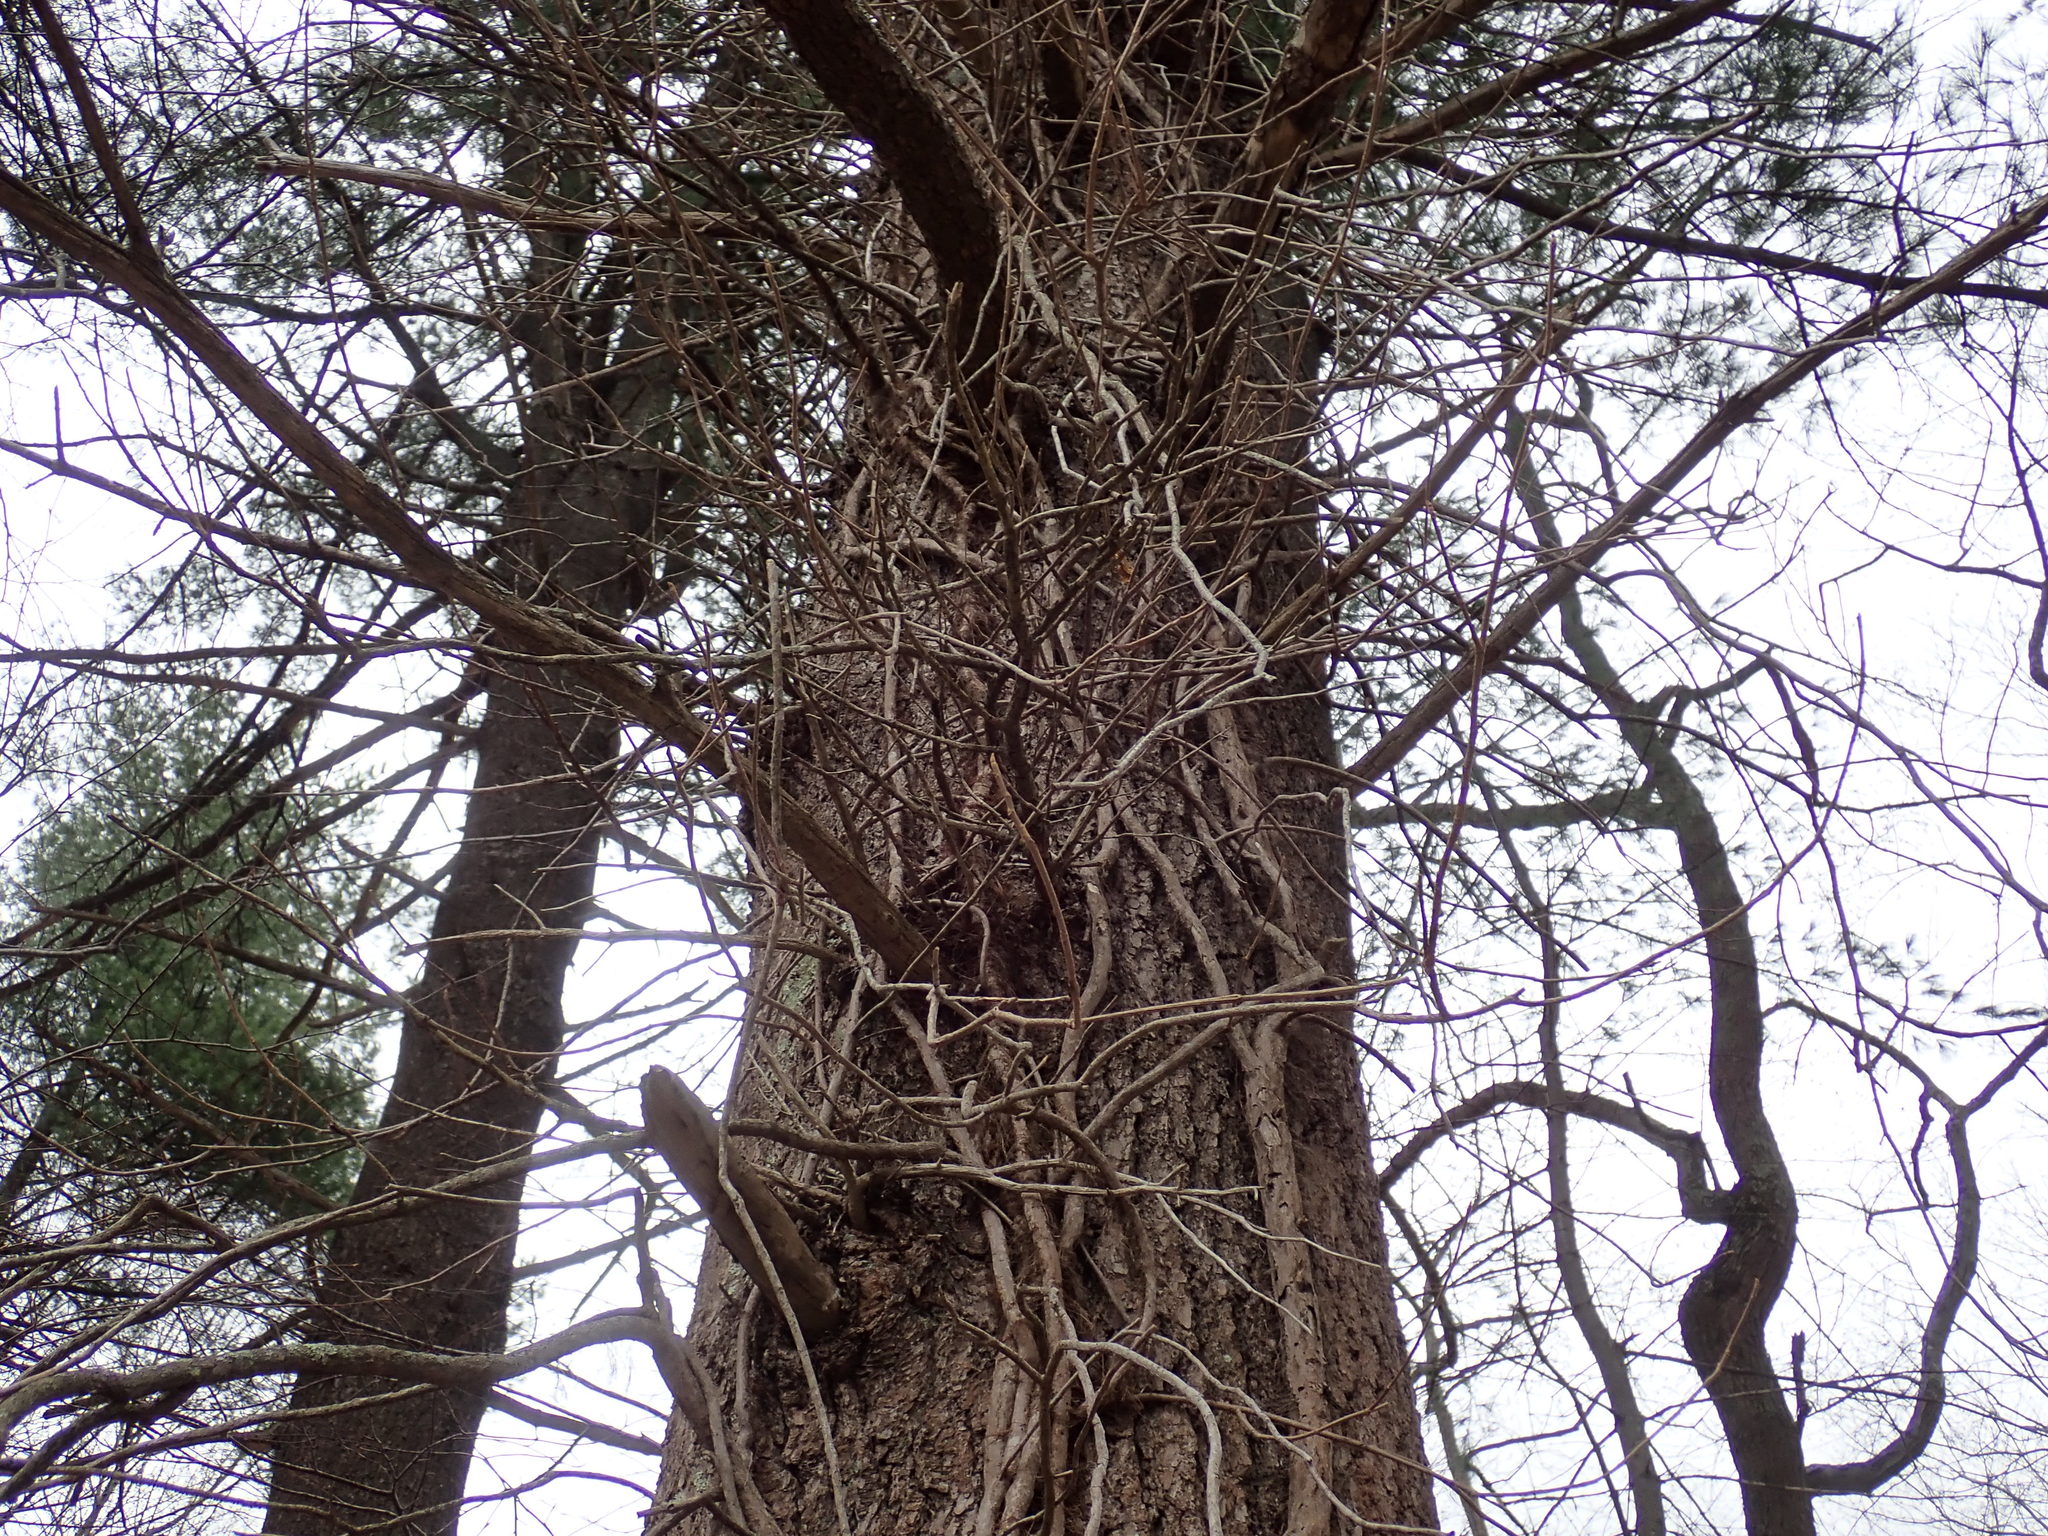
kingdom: Plantae
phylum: Tracheophyta
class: Magnoliopsida
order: Sapindales
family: Anacardiaceae
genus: Toxicodendron
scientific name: Toxicodendron radicans
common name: Poison ivy
